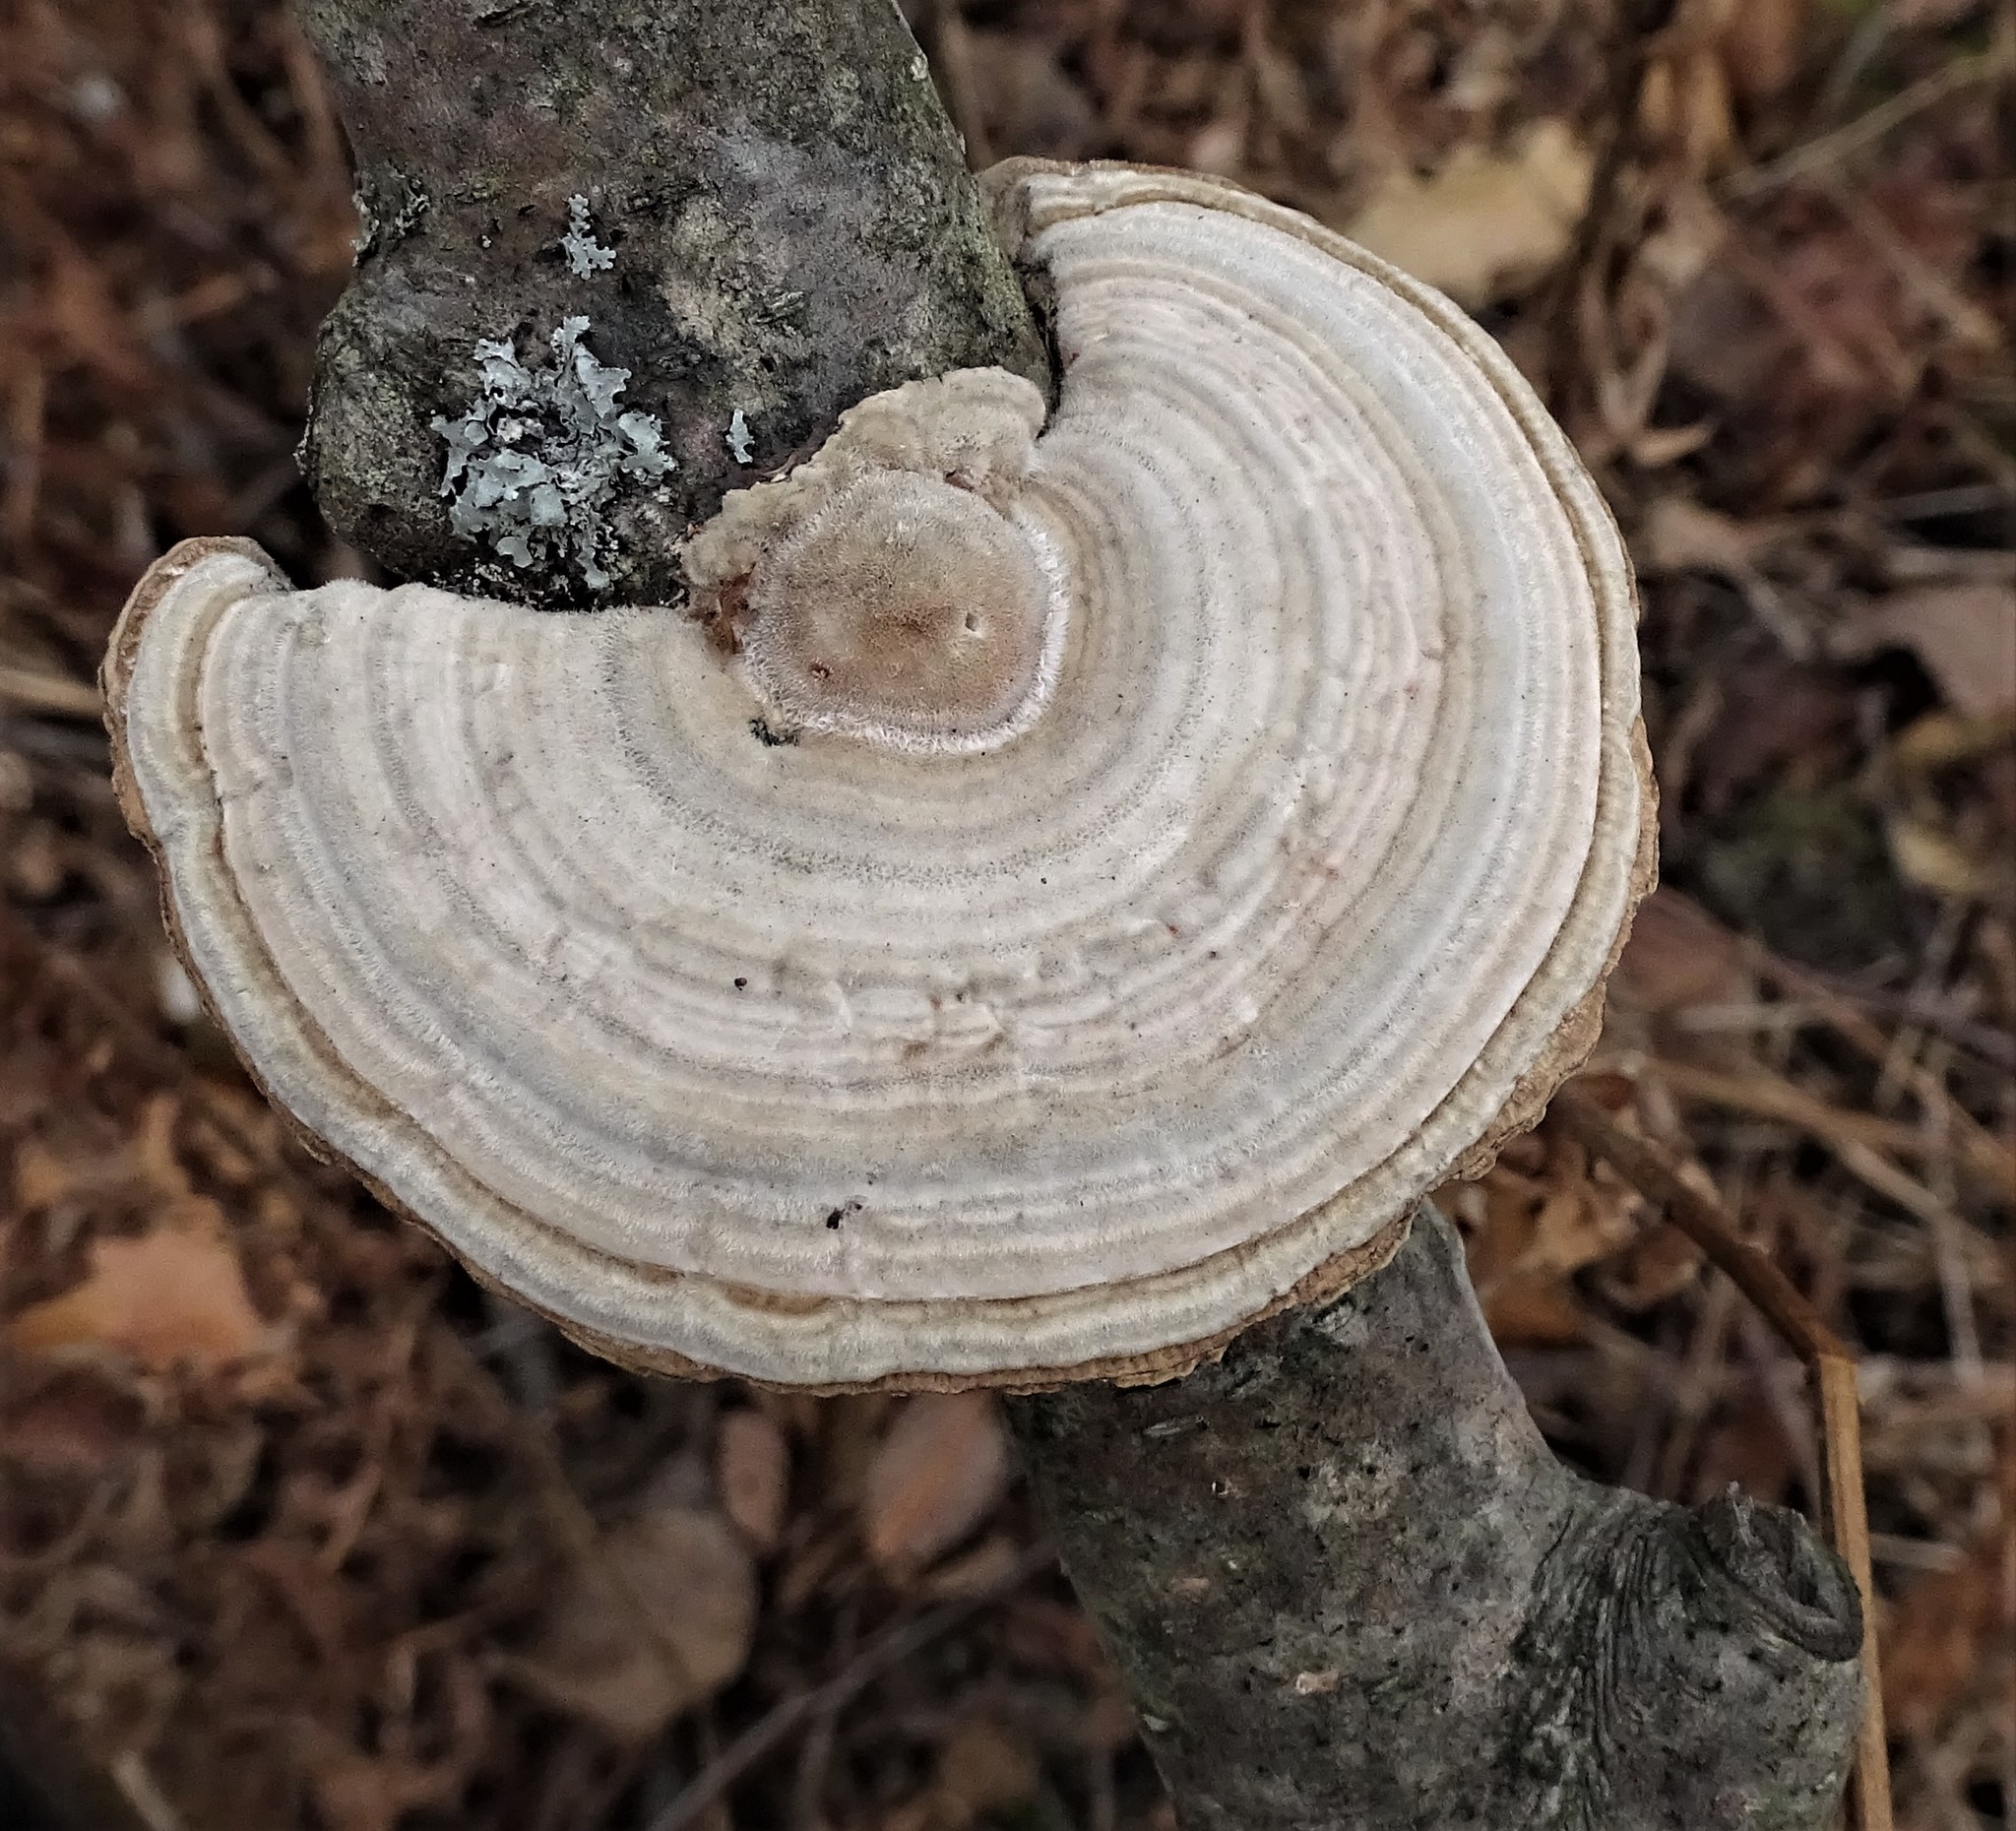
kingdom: Fungi
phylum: Basidiomycota
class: Agaricomycetes
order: Polyporales
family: Polyporaceae
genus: Lenzites
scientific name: Lenzites betulinus
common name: Birch mazegill
